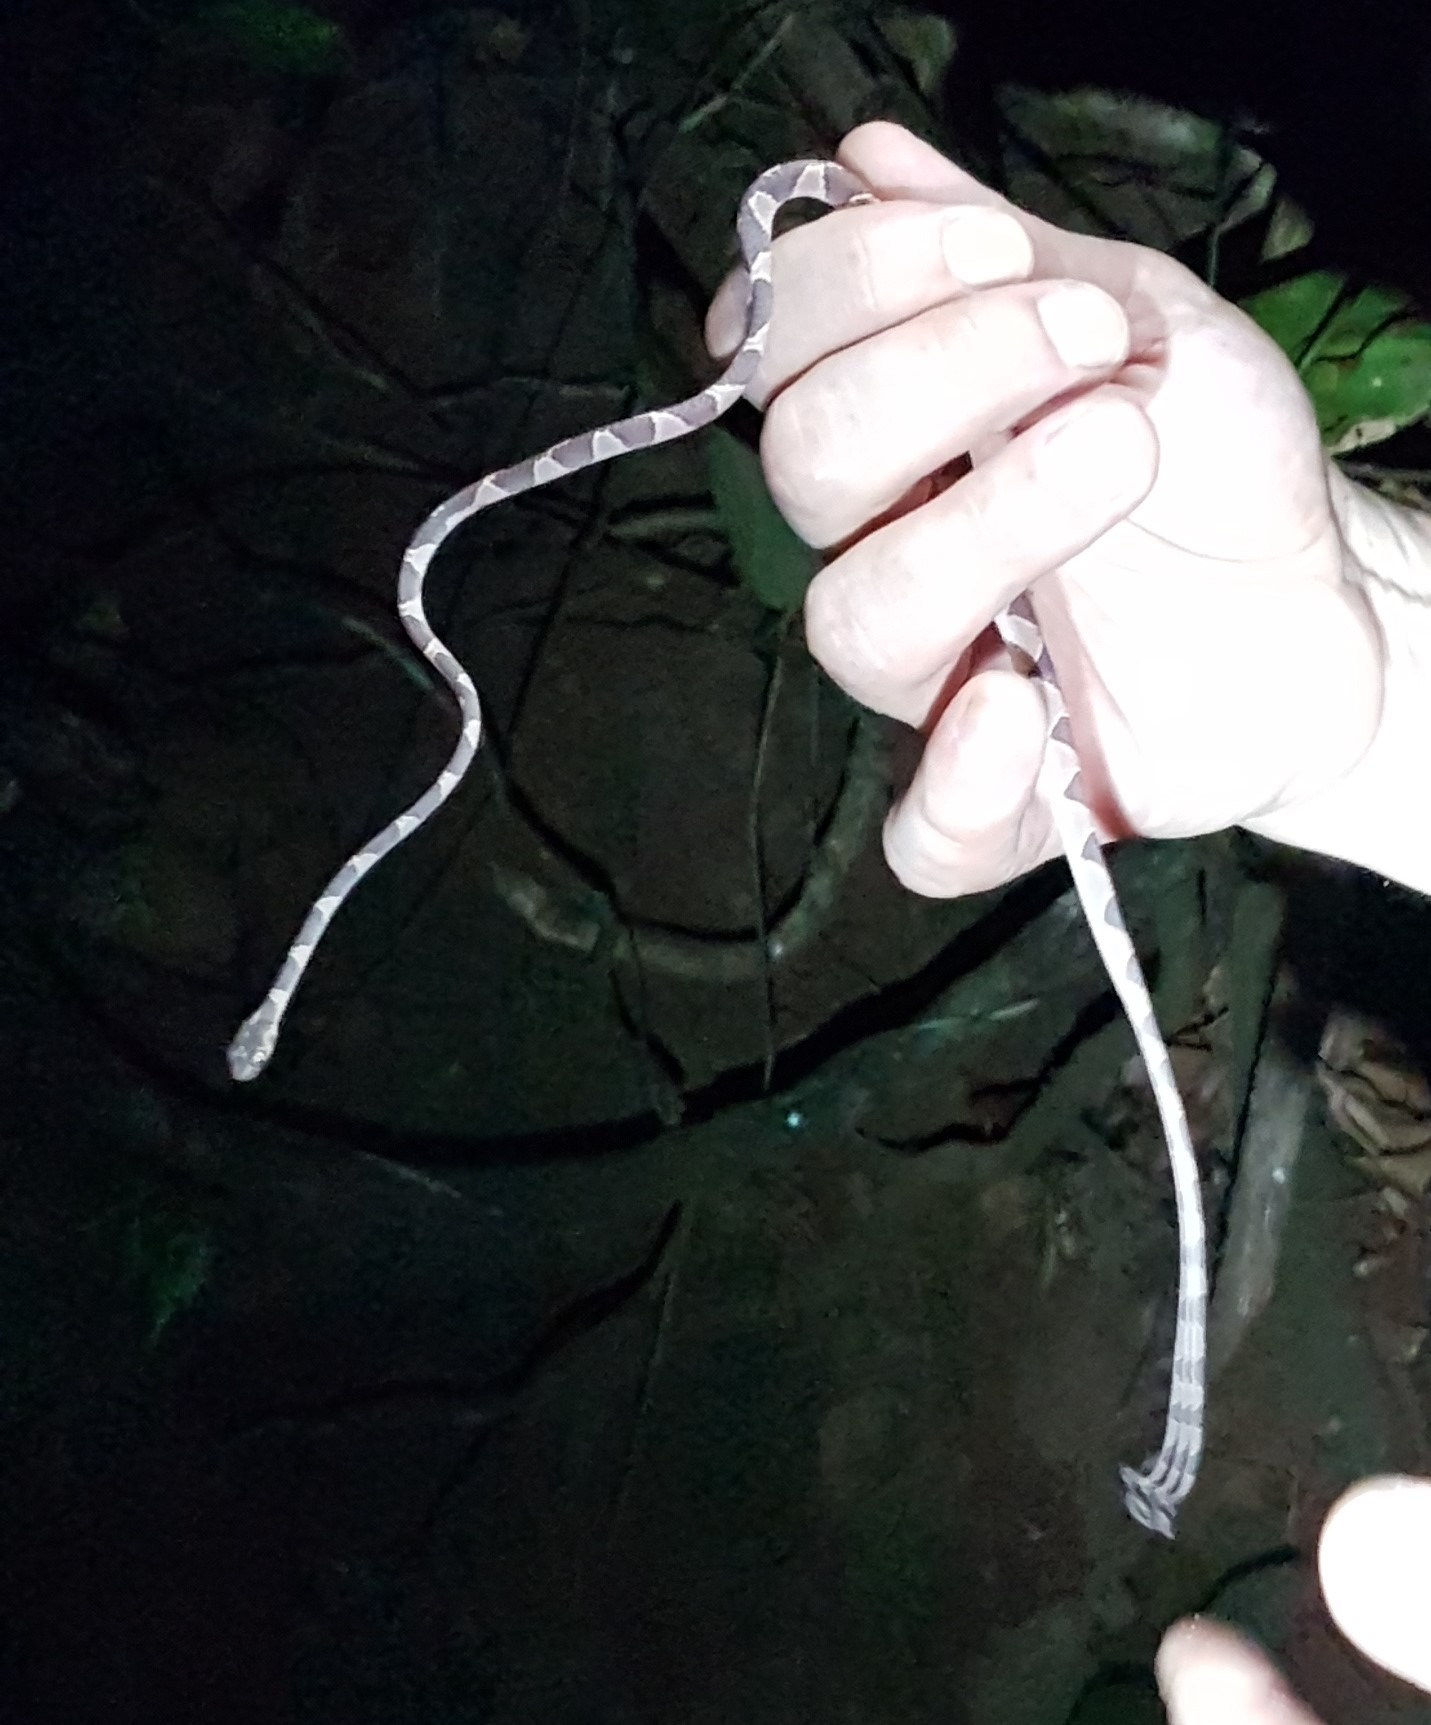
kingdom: Animalia
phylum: Chordata
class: Squamata
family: Colubridae
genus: Imantodes
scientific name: Imantodes cenchoa
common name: Blunthead tree snake
